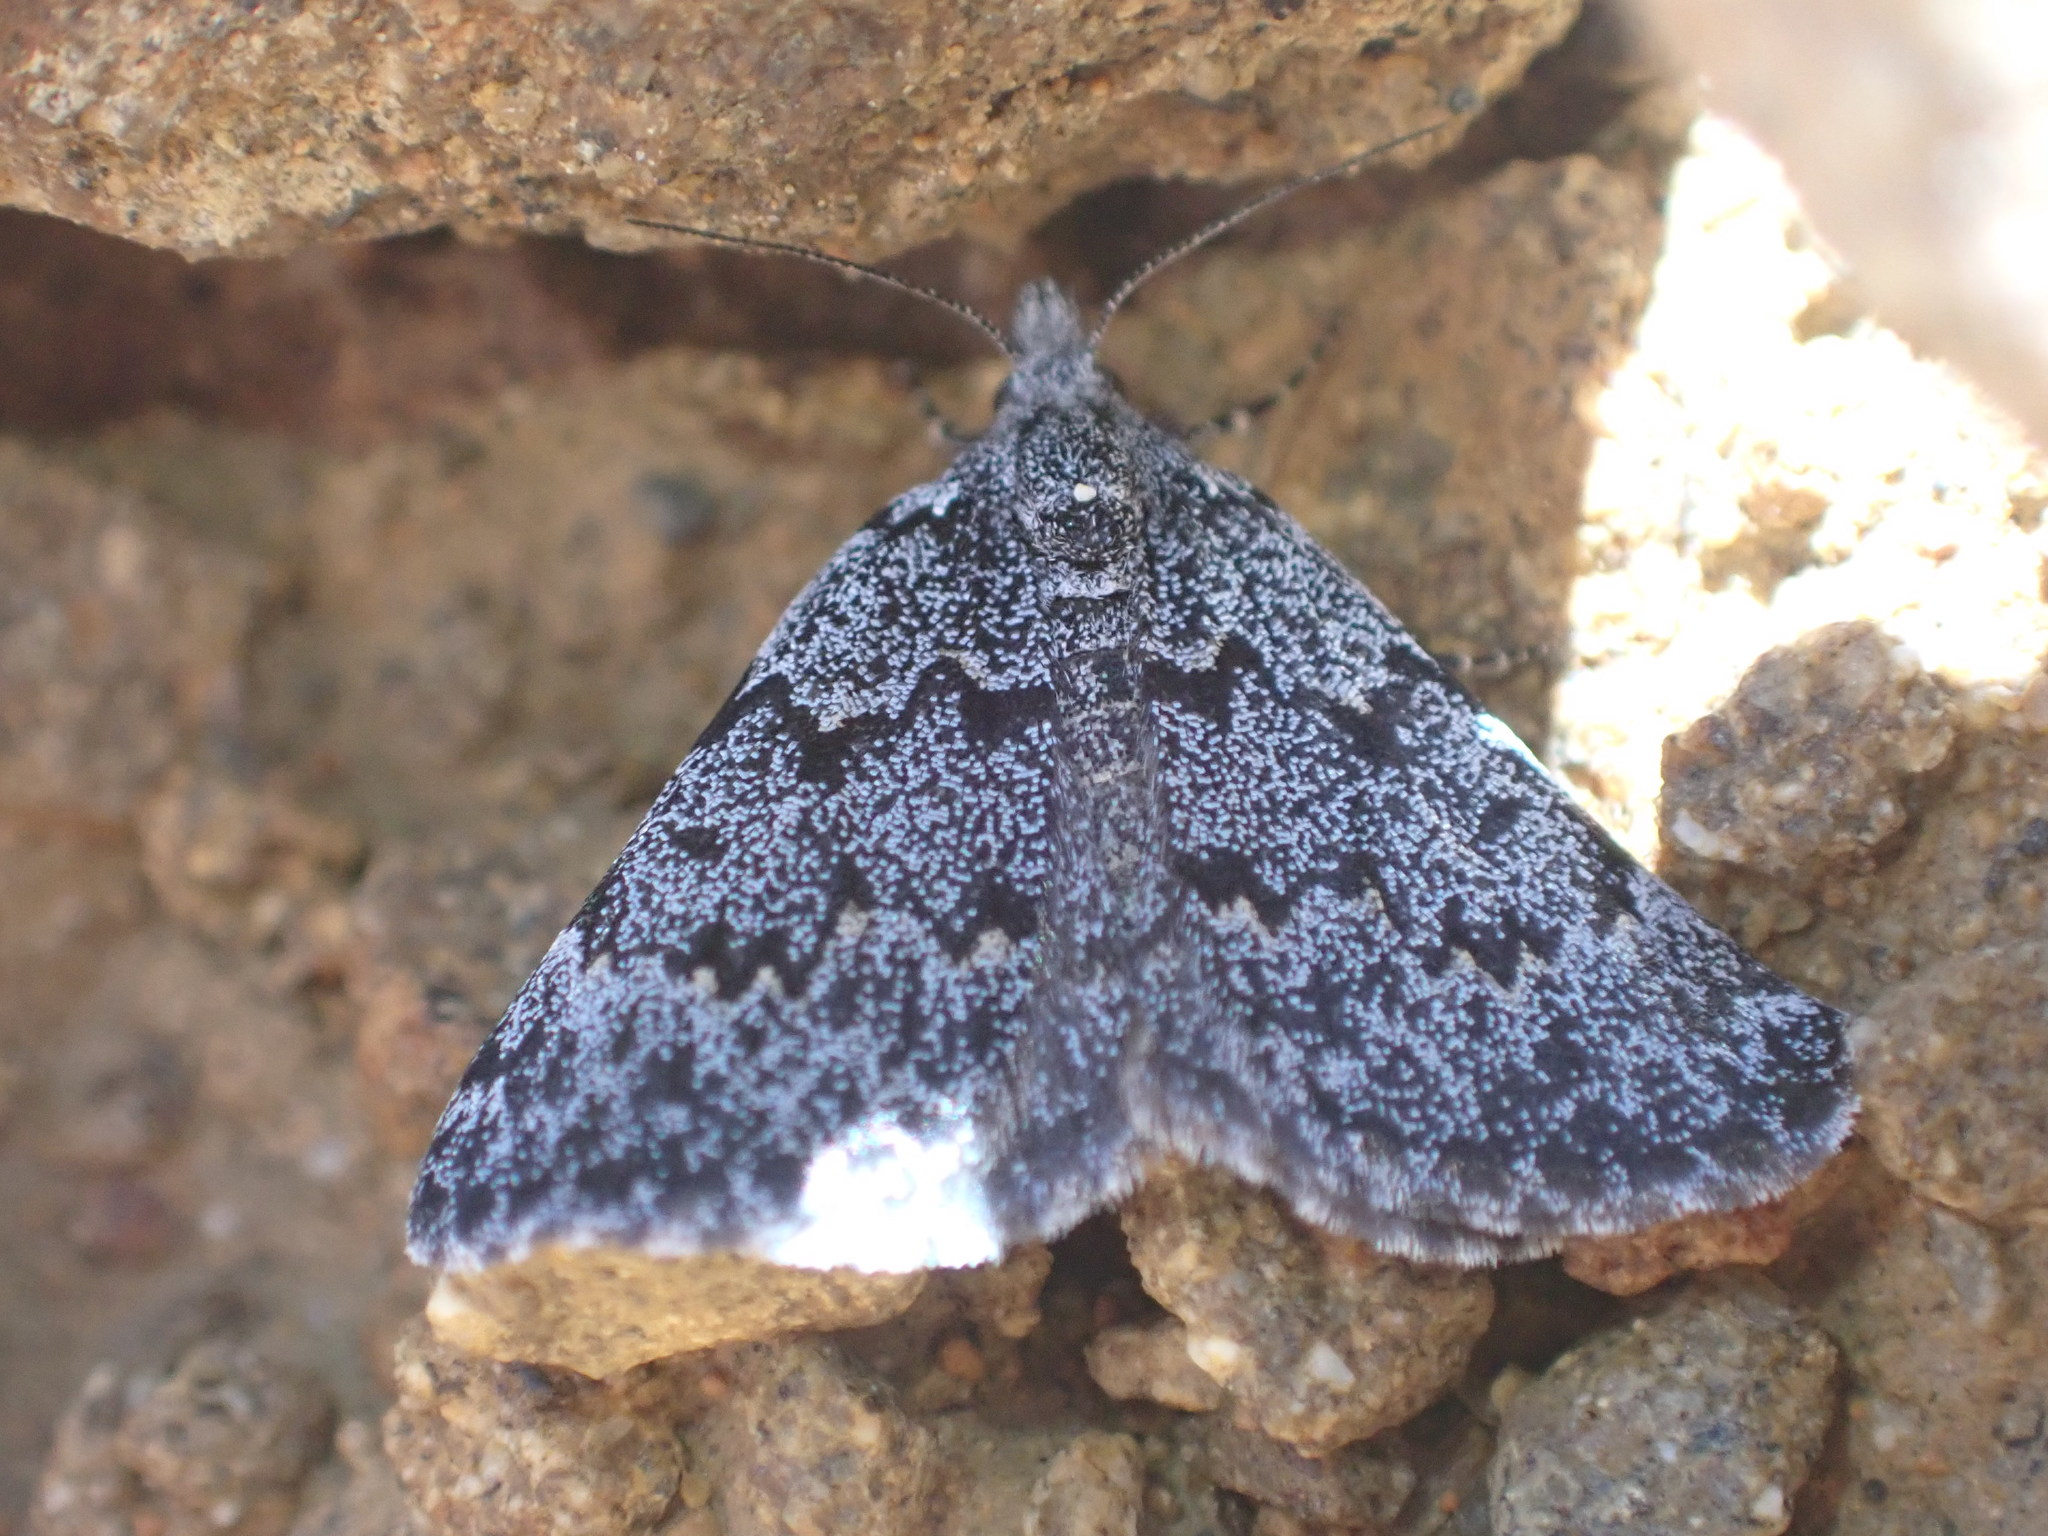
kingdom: Animalia
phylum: Arthropoda
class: Insecta
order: Lepidoptera
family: Geometridae
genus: Dichromodes
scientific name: Dichromodes niger
